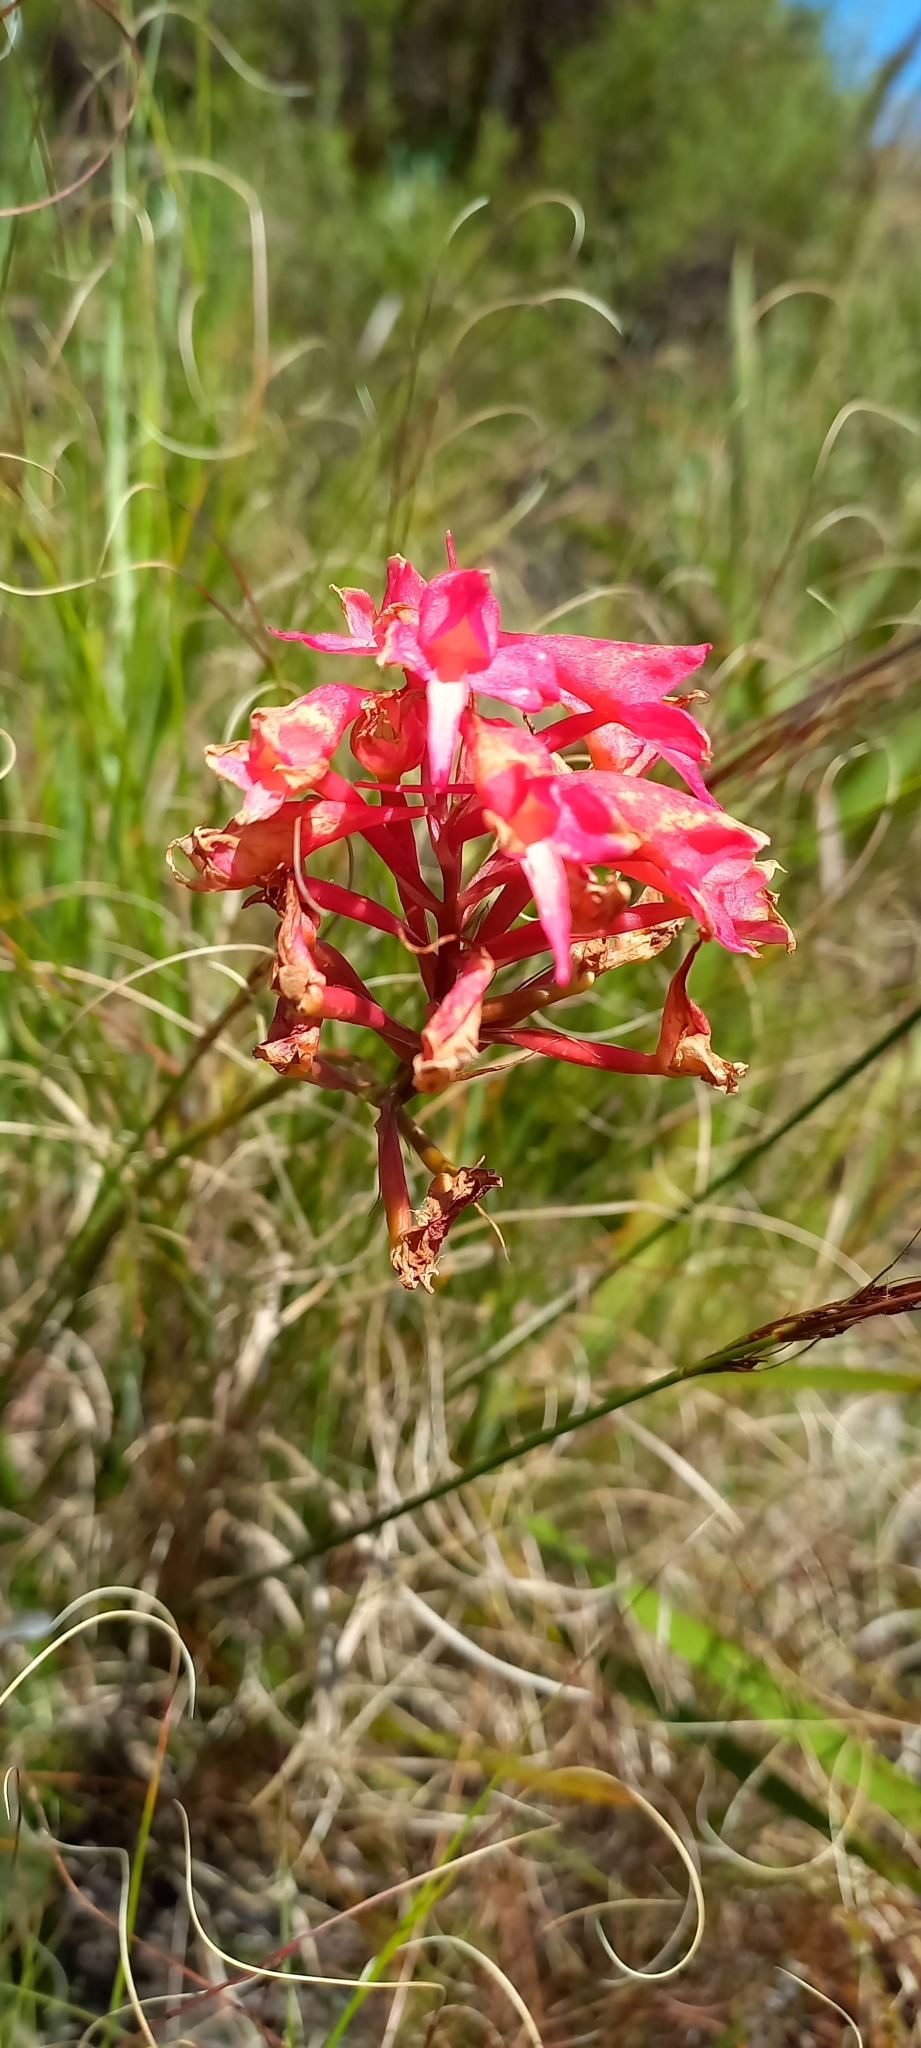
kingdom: Plantae
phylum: Tracheophyta
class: Liliopsida
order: Asparagales
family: Orchidaceae
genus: Disa
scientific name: Disa ferruginea
